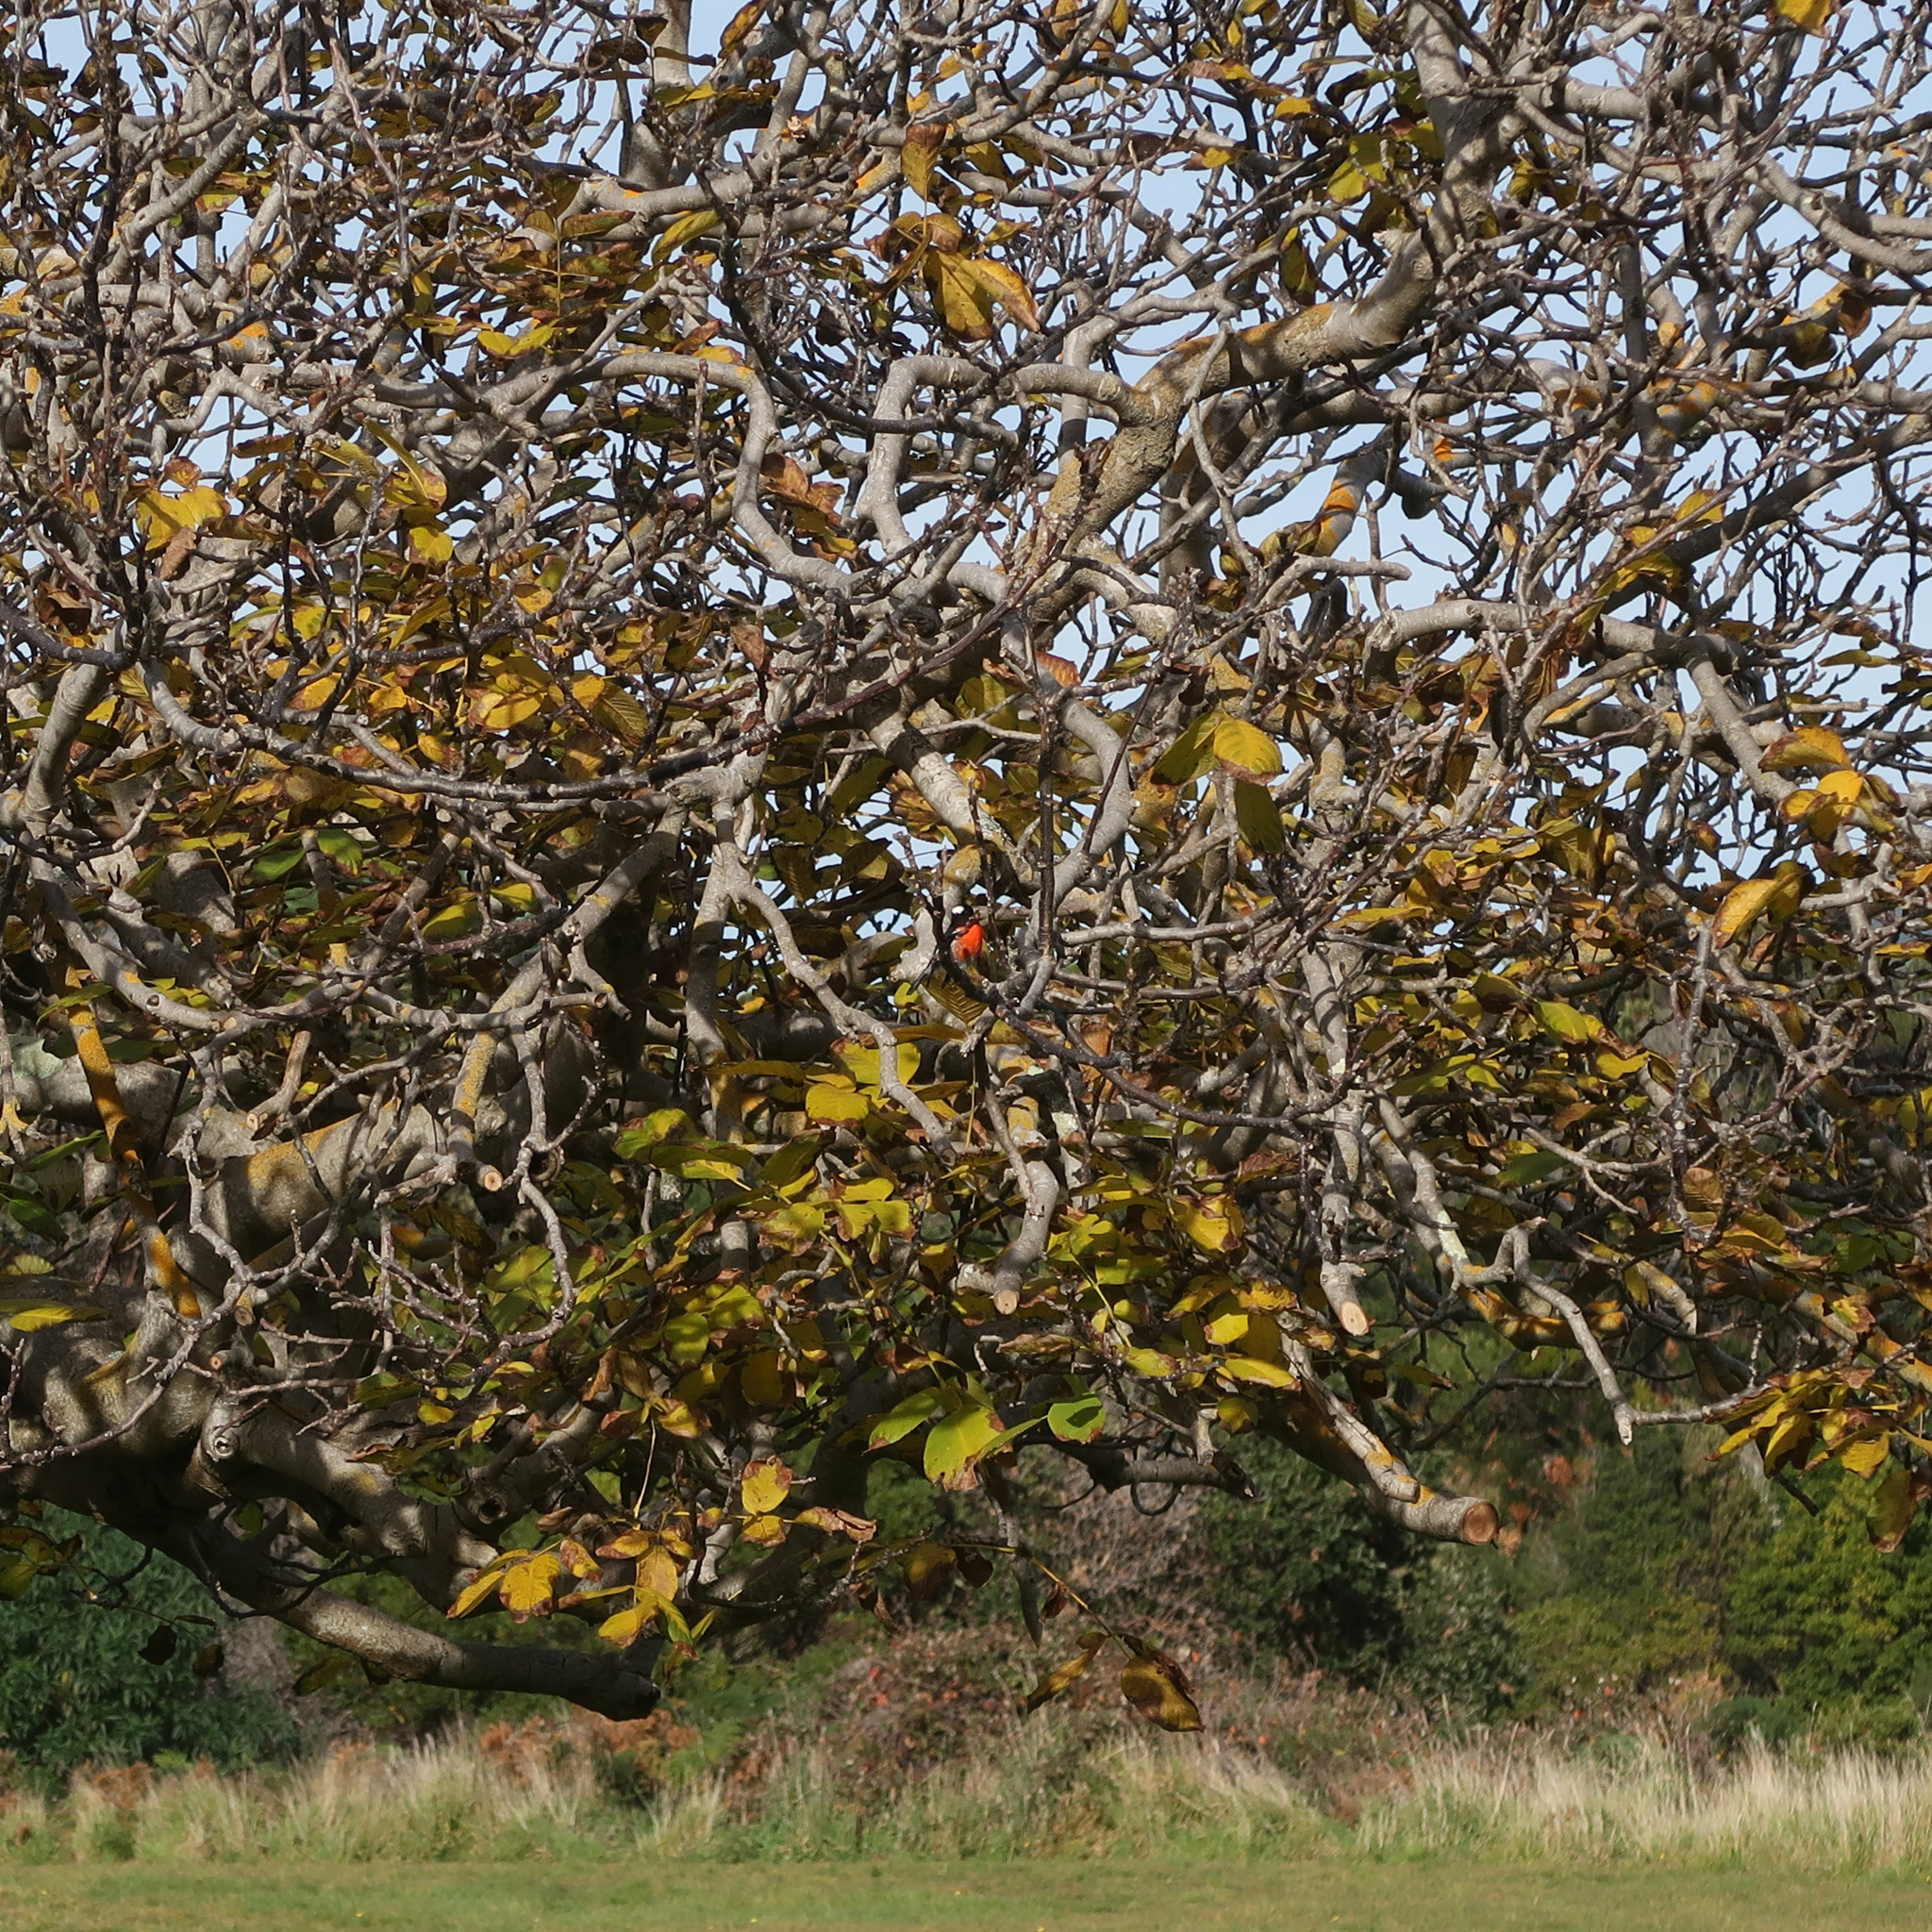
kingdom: Animalia
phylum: Chordata
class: Aves
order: Passeriformes
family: Petroicidae
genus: Petroica
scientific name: Petroica boodang
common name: Scarlet robin
